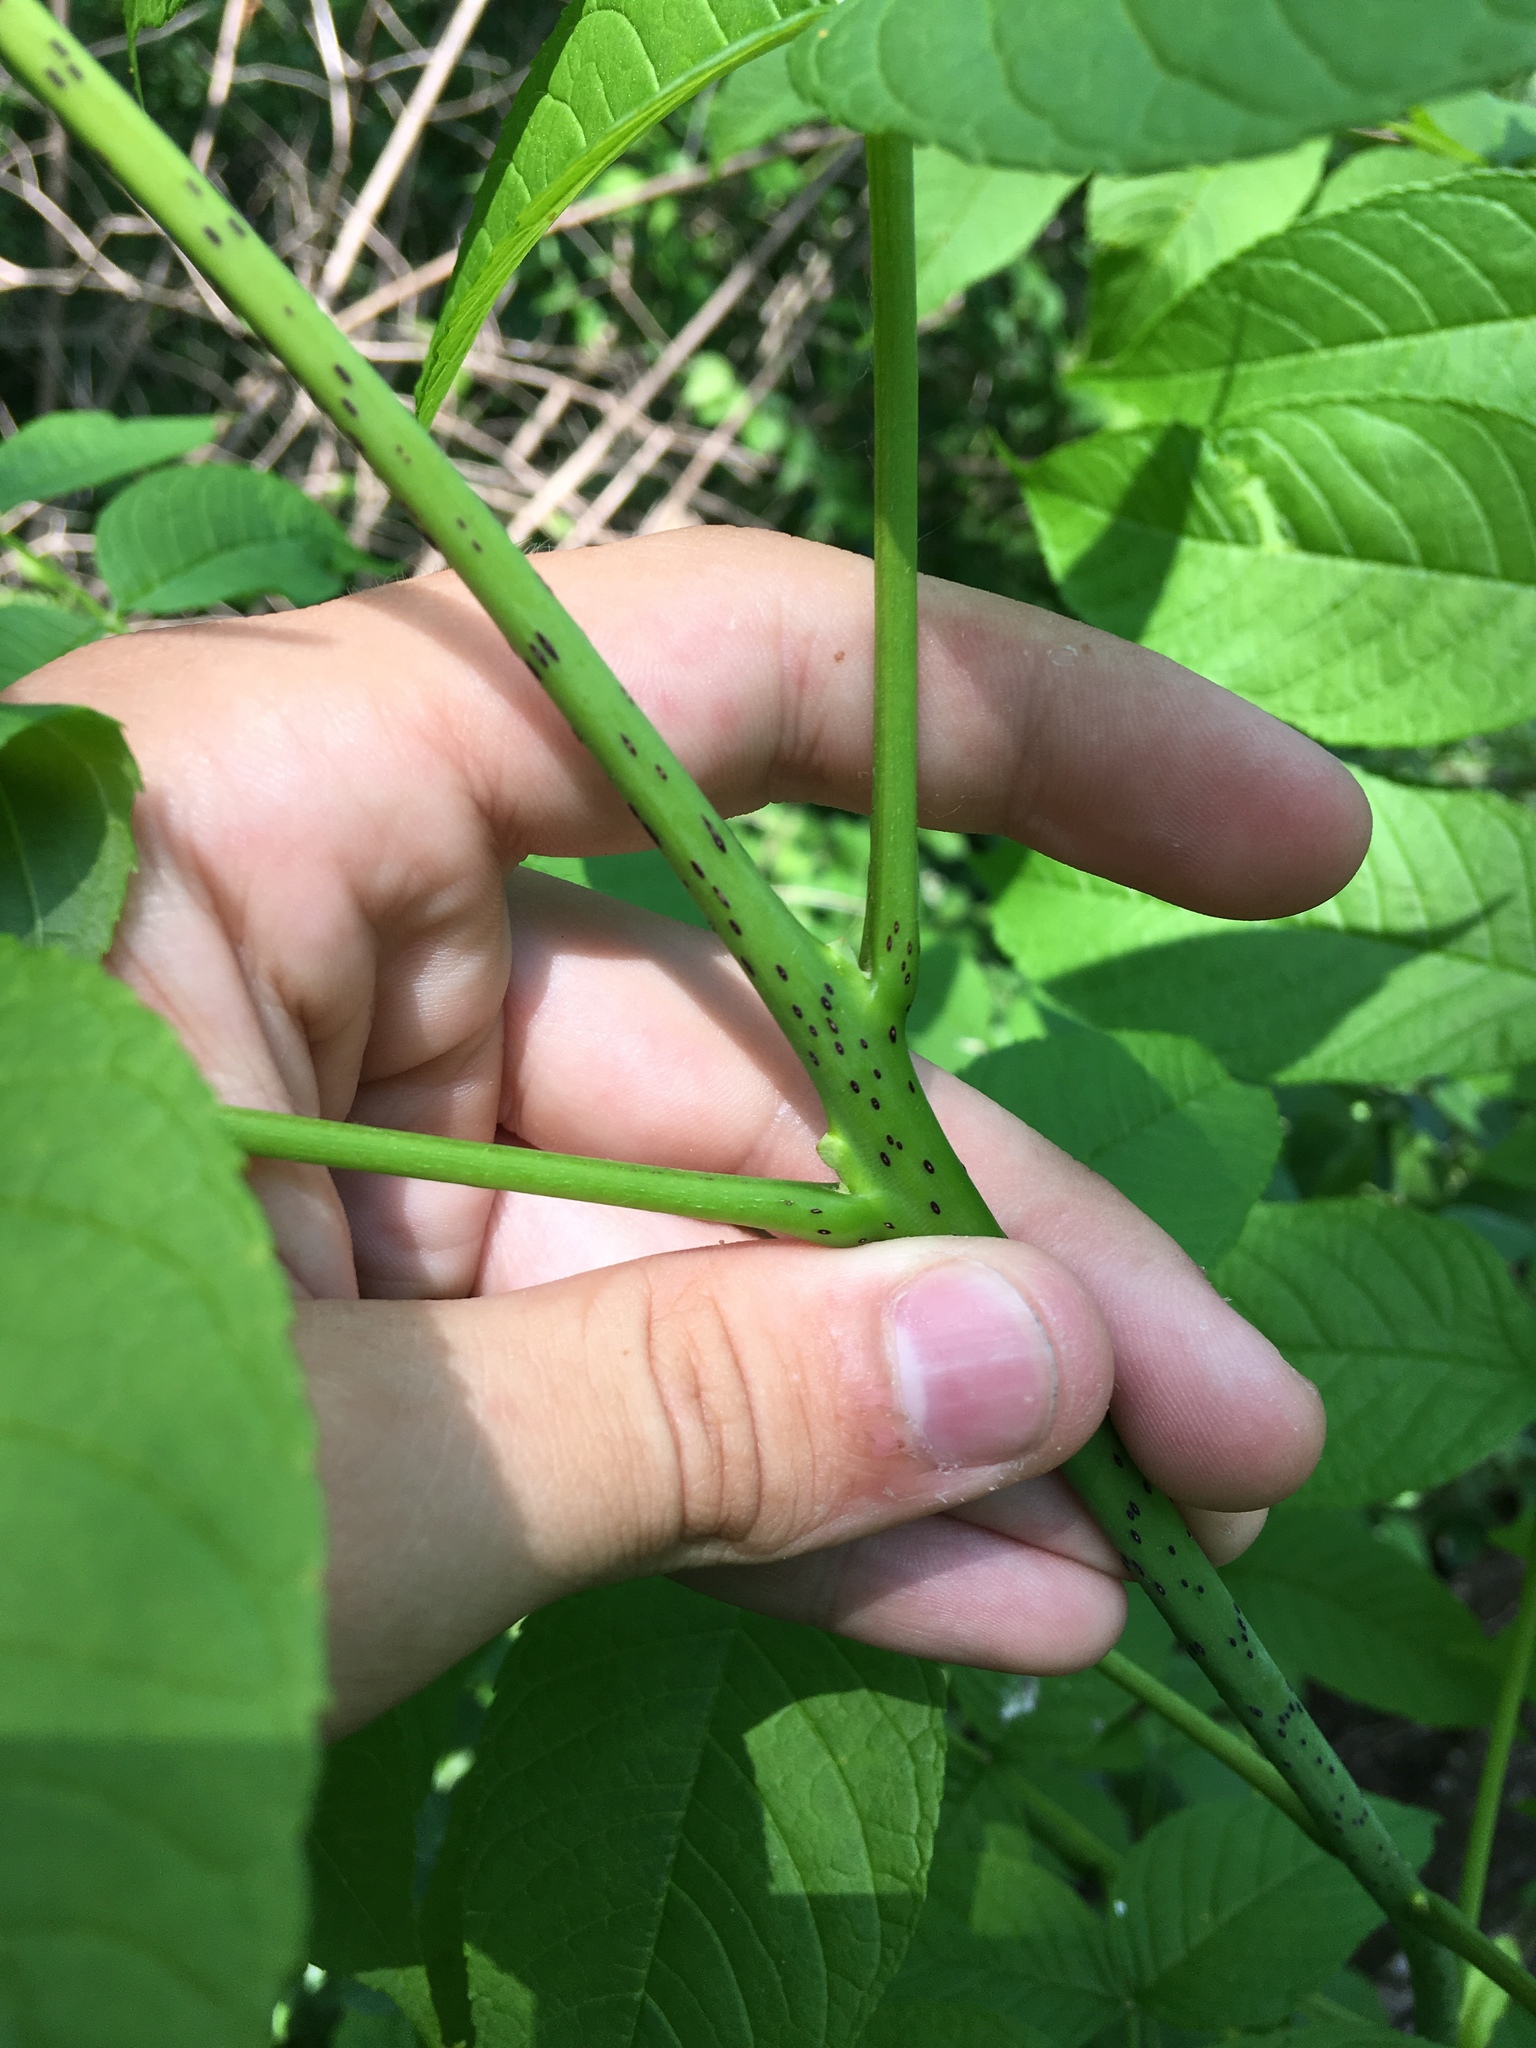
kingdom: Plantae
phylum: Tracheophyta
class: Magnoliopsida
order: Lamiales
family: Oleaceae
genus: Fraxinus
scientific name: Fraxinus nigra
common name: Black ash
